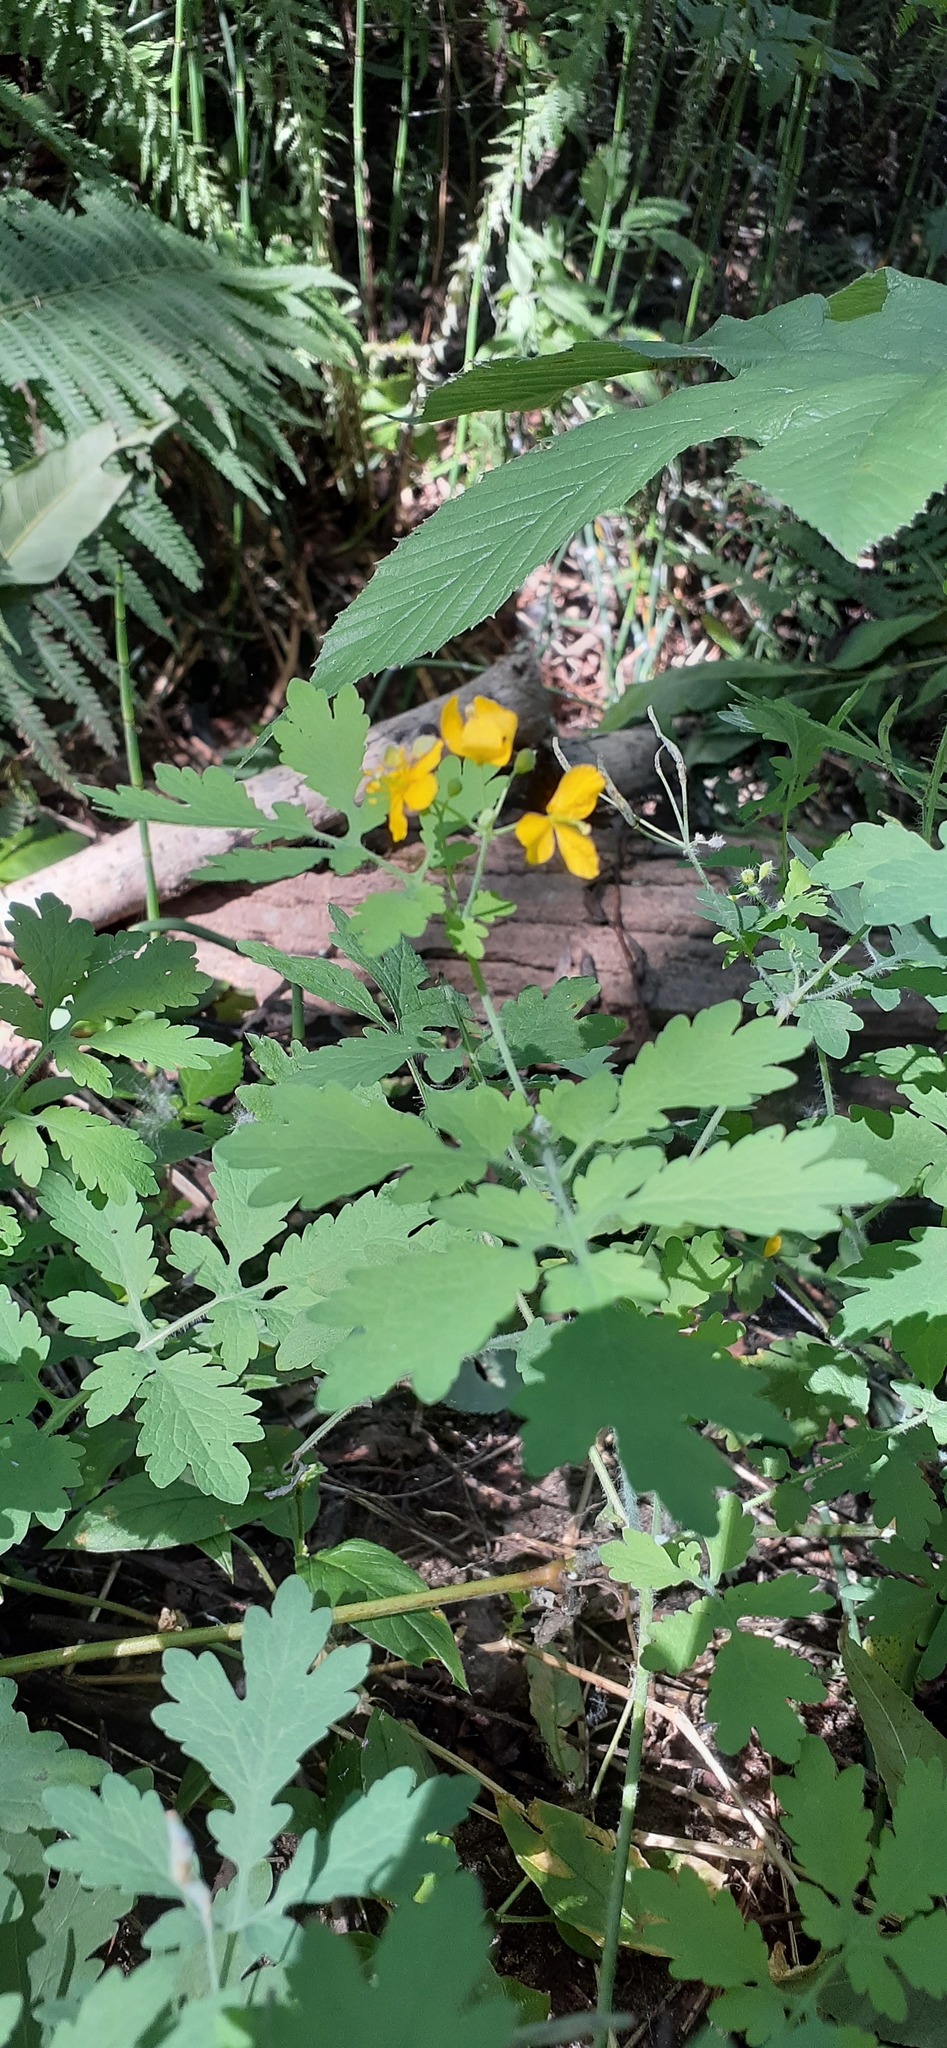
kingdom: Plantae
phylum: Tracheophyta
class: Magnoliopsida
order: Ranunculales
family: Papaveraceae
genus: Chelidonium
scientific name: Chelidonium majus
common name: Greater celandine
